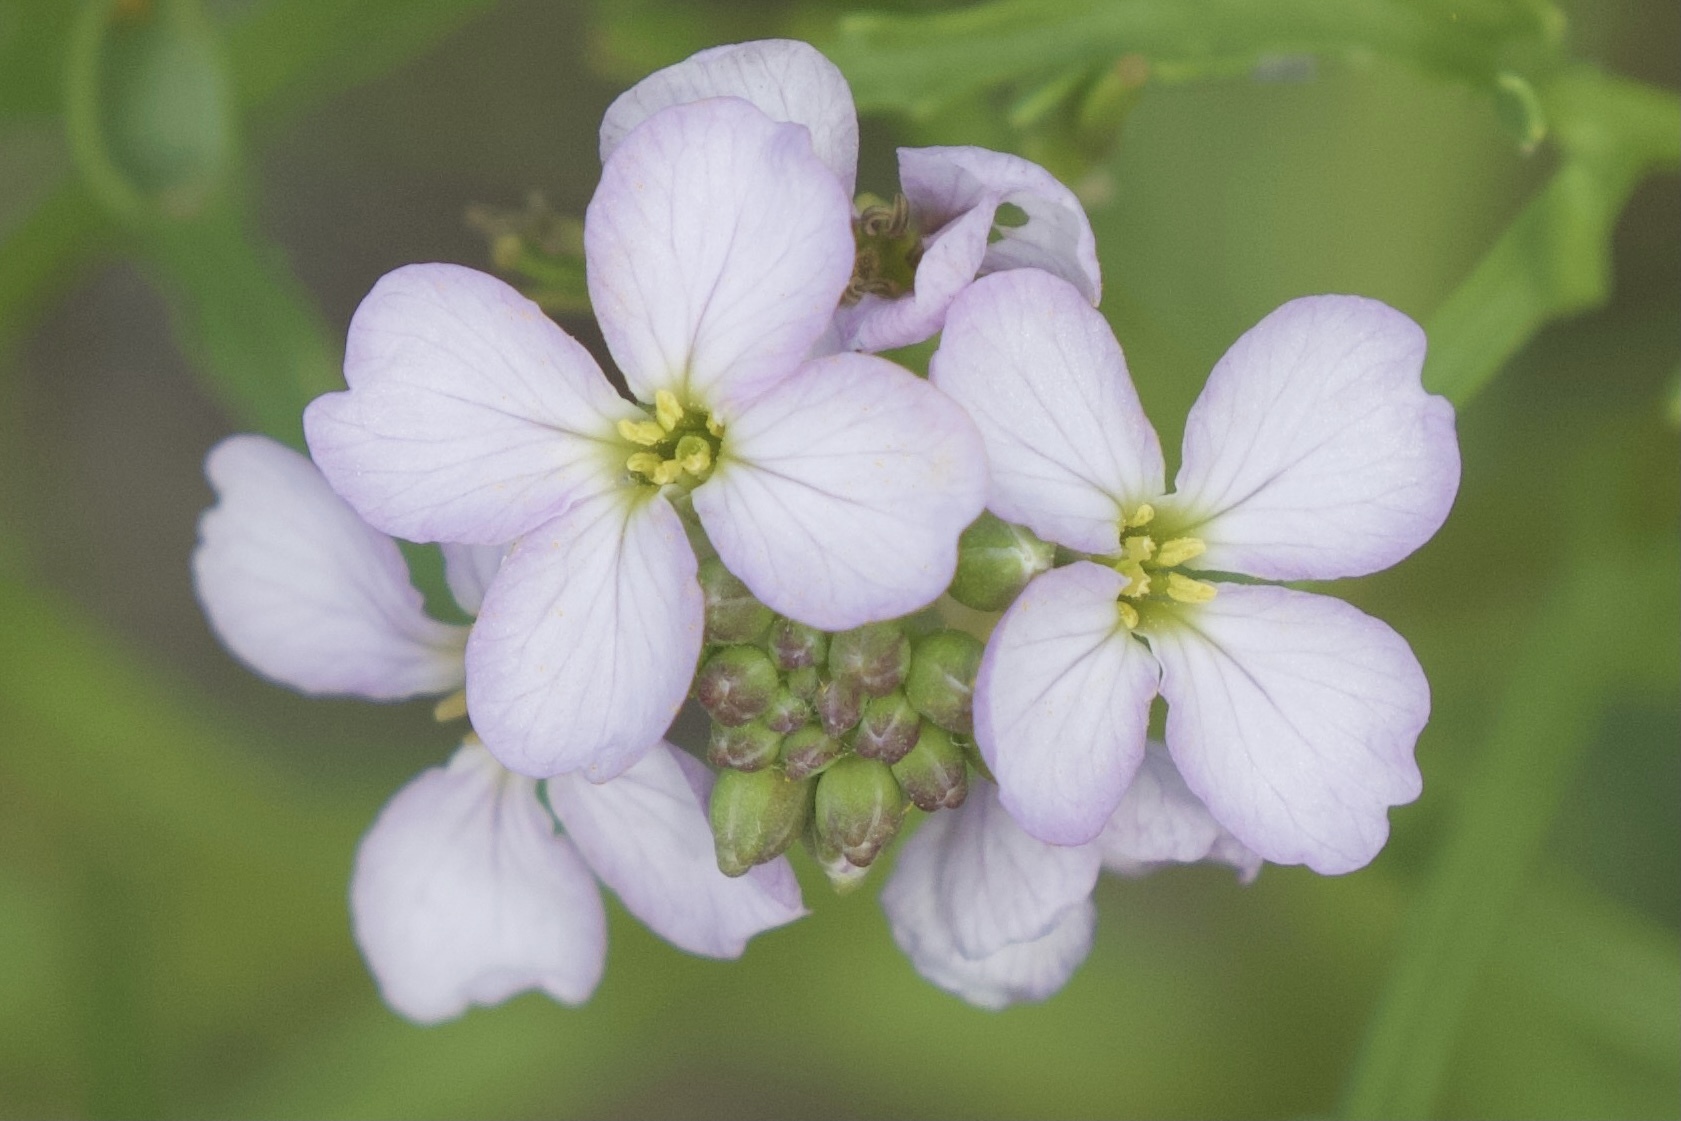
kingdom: Plantae
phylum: Tracheophyta
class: Magnoliopsida
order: Brassicales
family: Brassicaceae
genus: Cakile
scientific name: Cakile lanceolata
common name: Sea rocket
